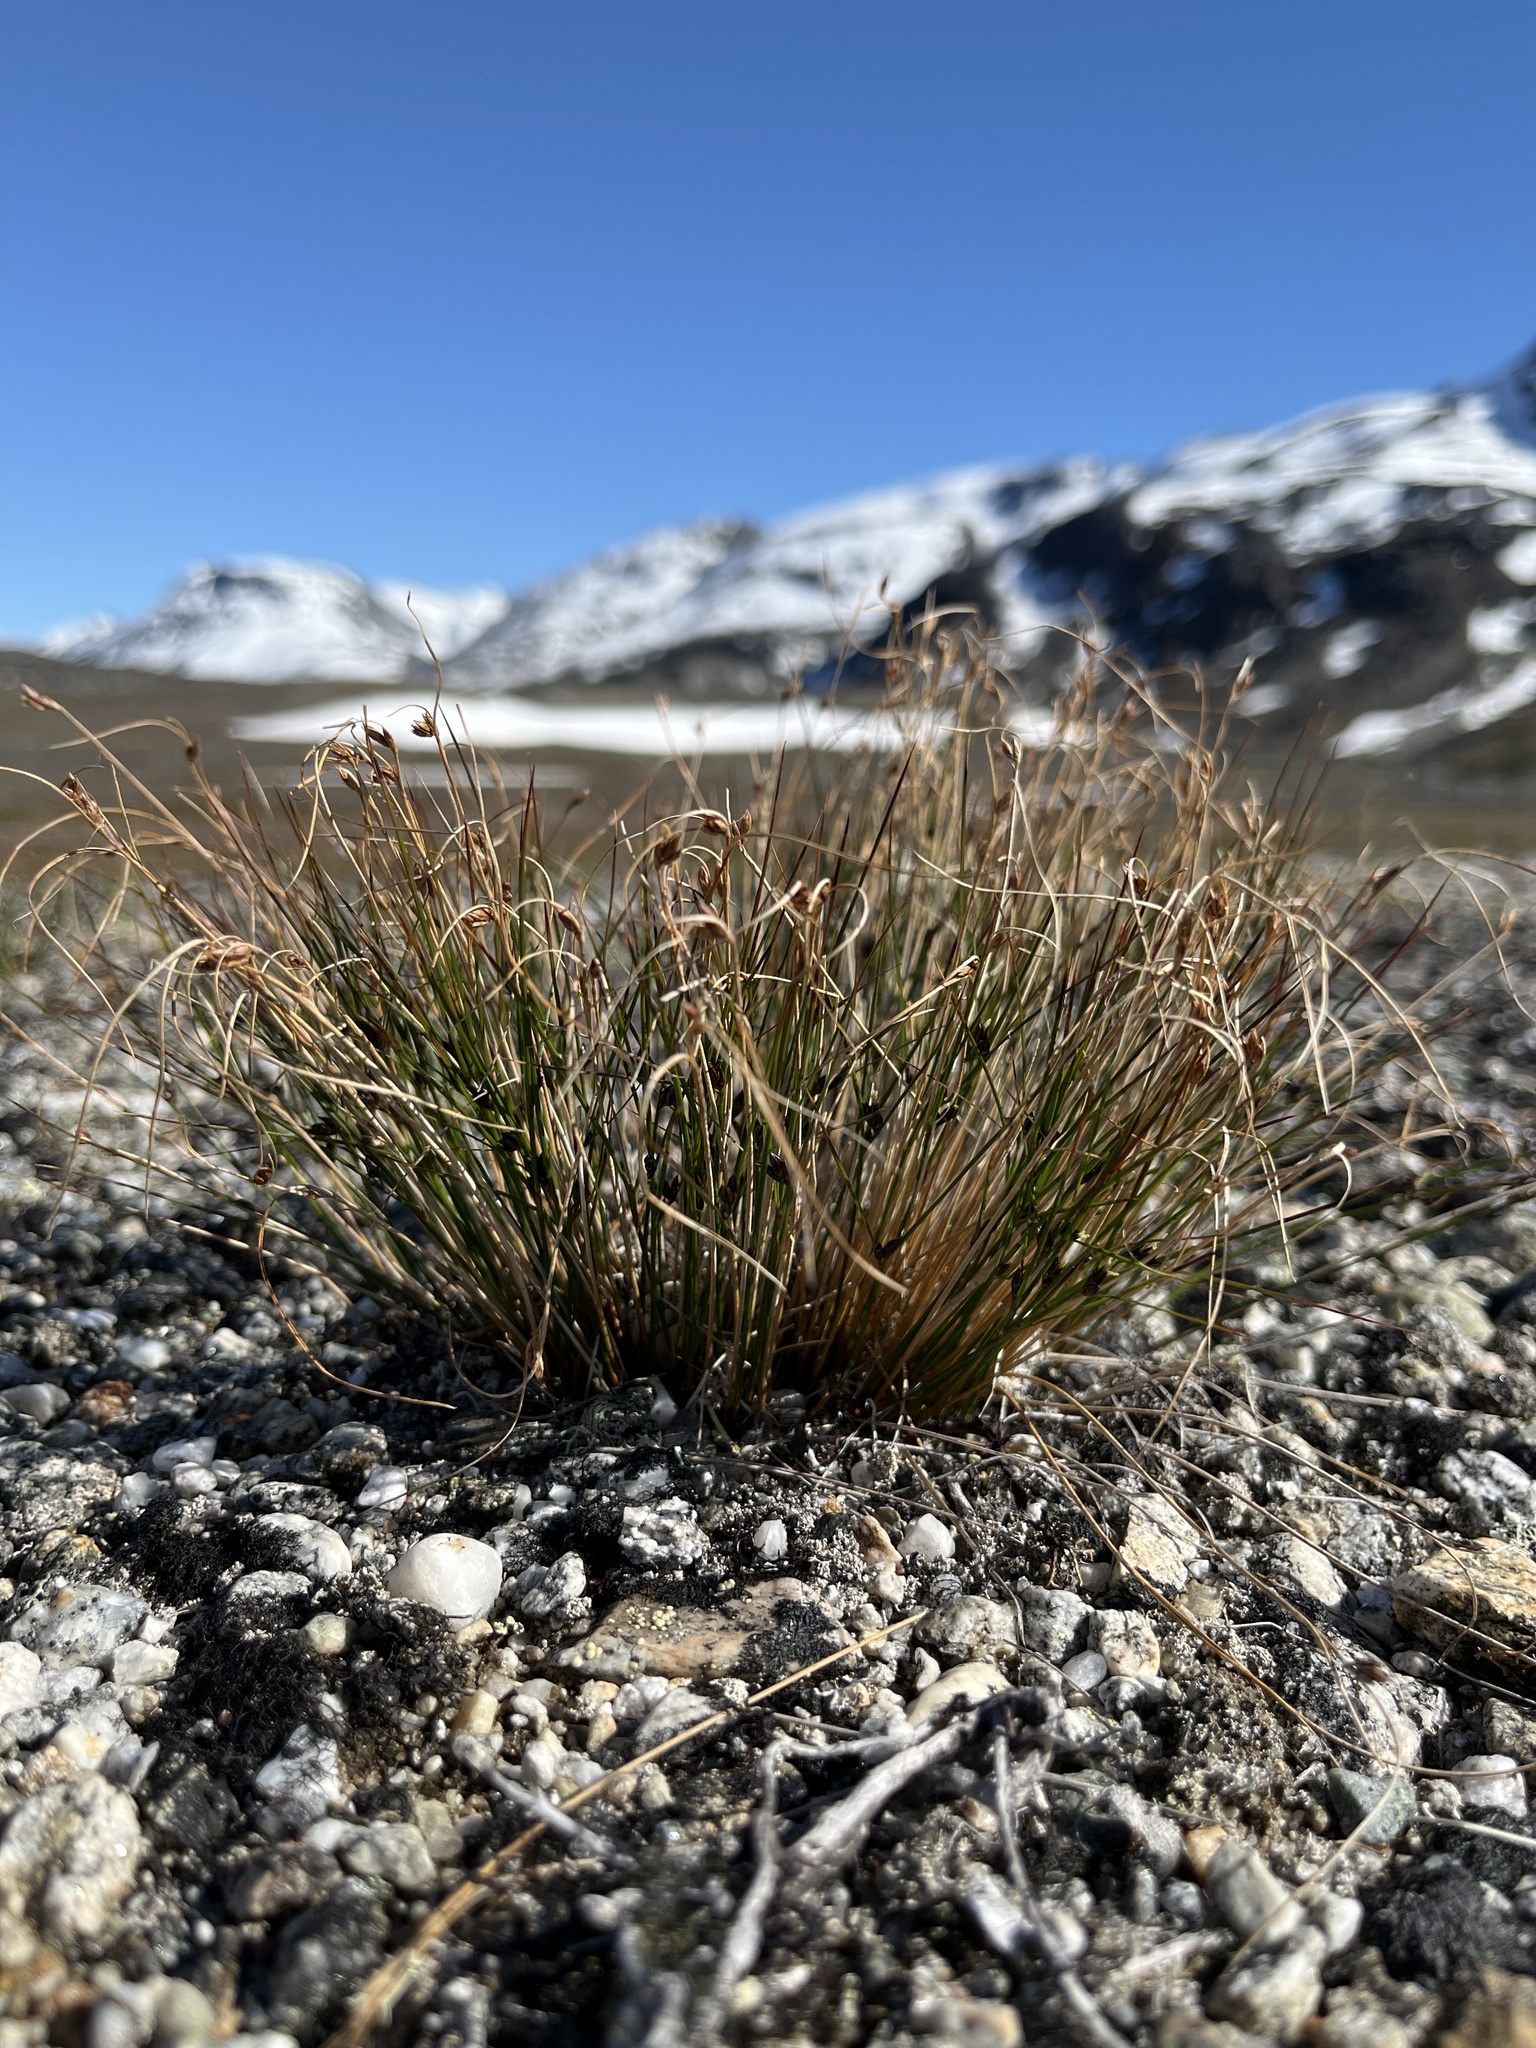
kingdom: Plantae
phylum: Tracheophyta
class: Liliopsida
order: Poales
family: Juncaceae
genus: Oreojuncus
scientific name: Oreojuncus trifidus
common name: Highland rush
